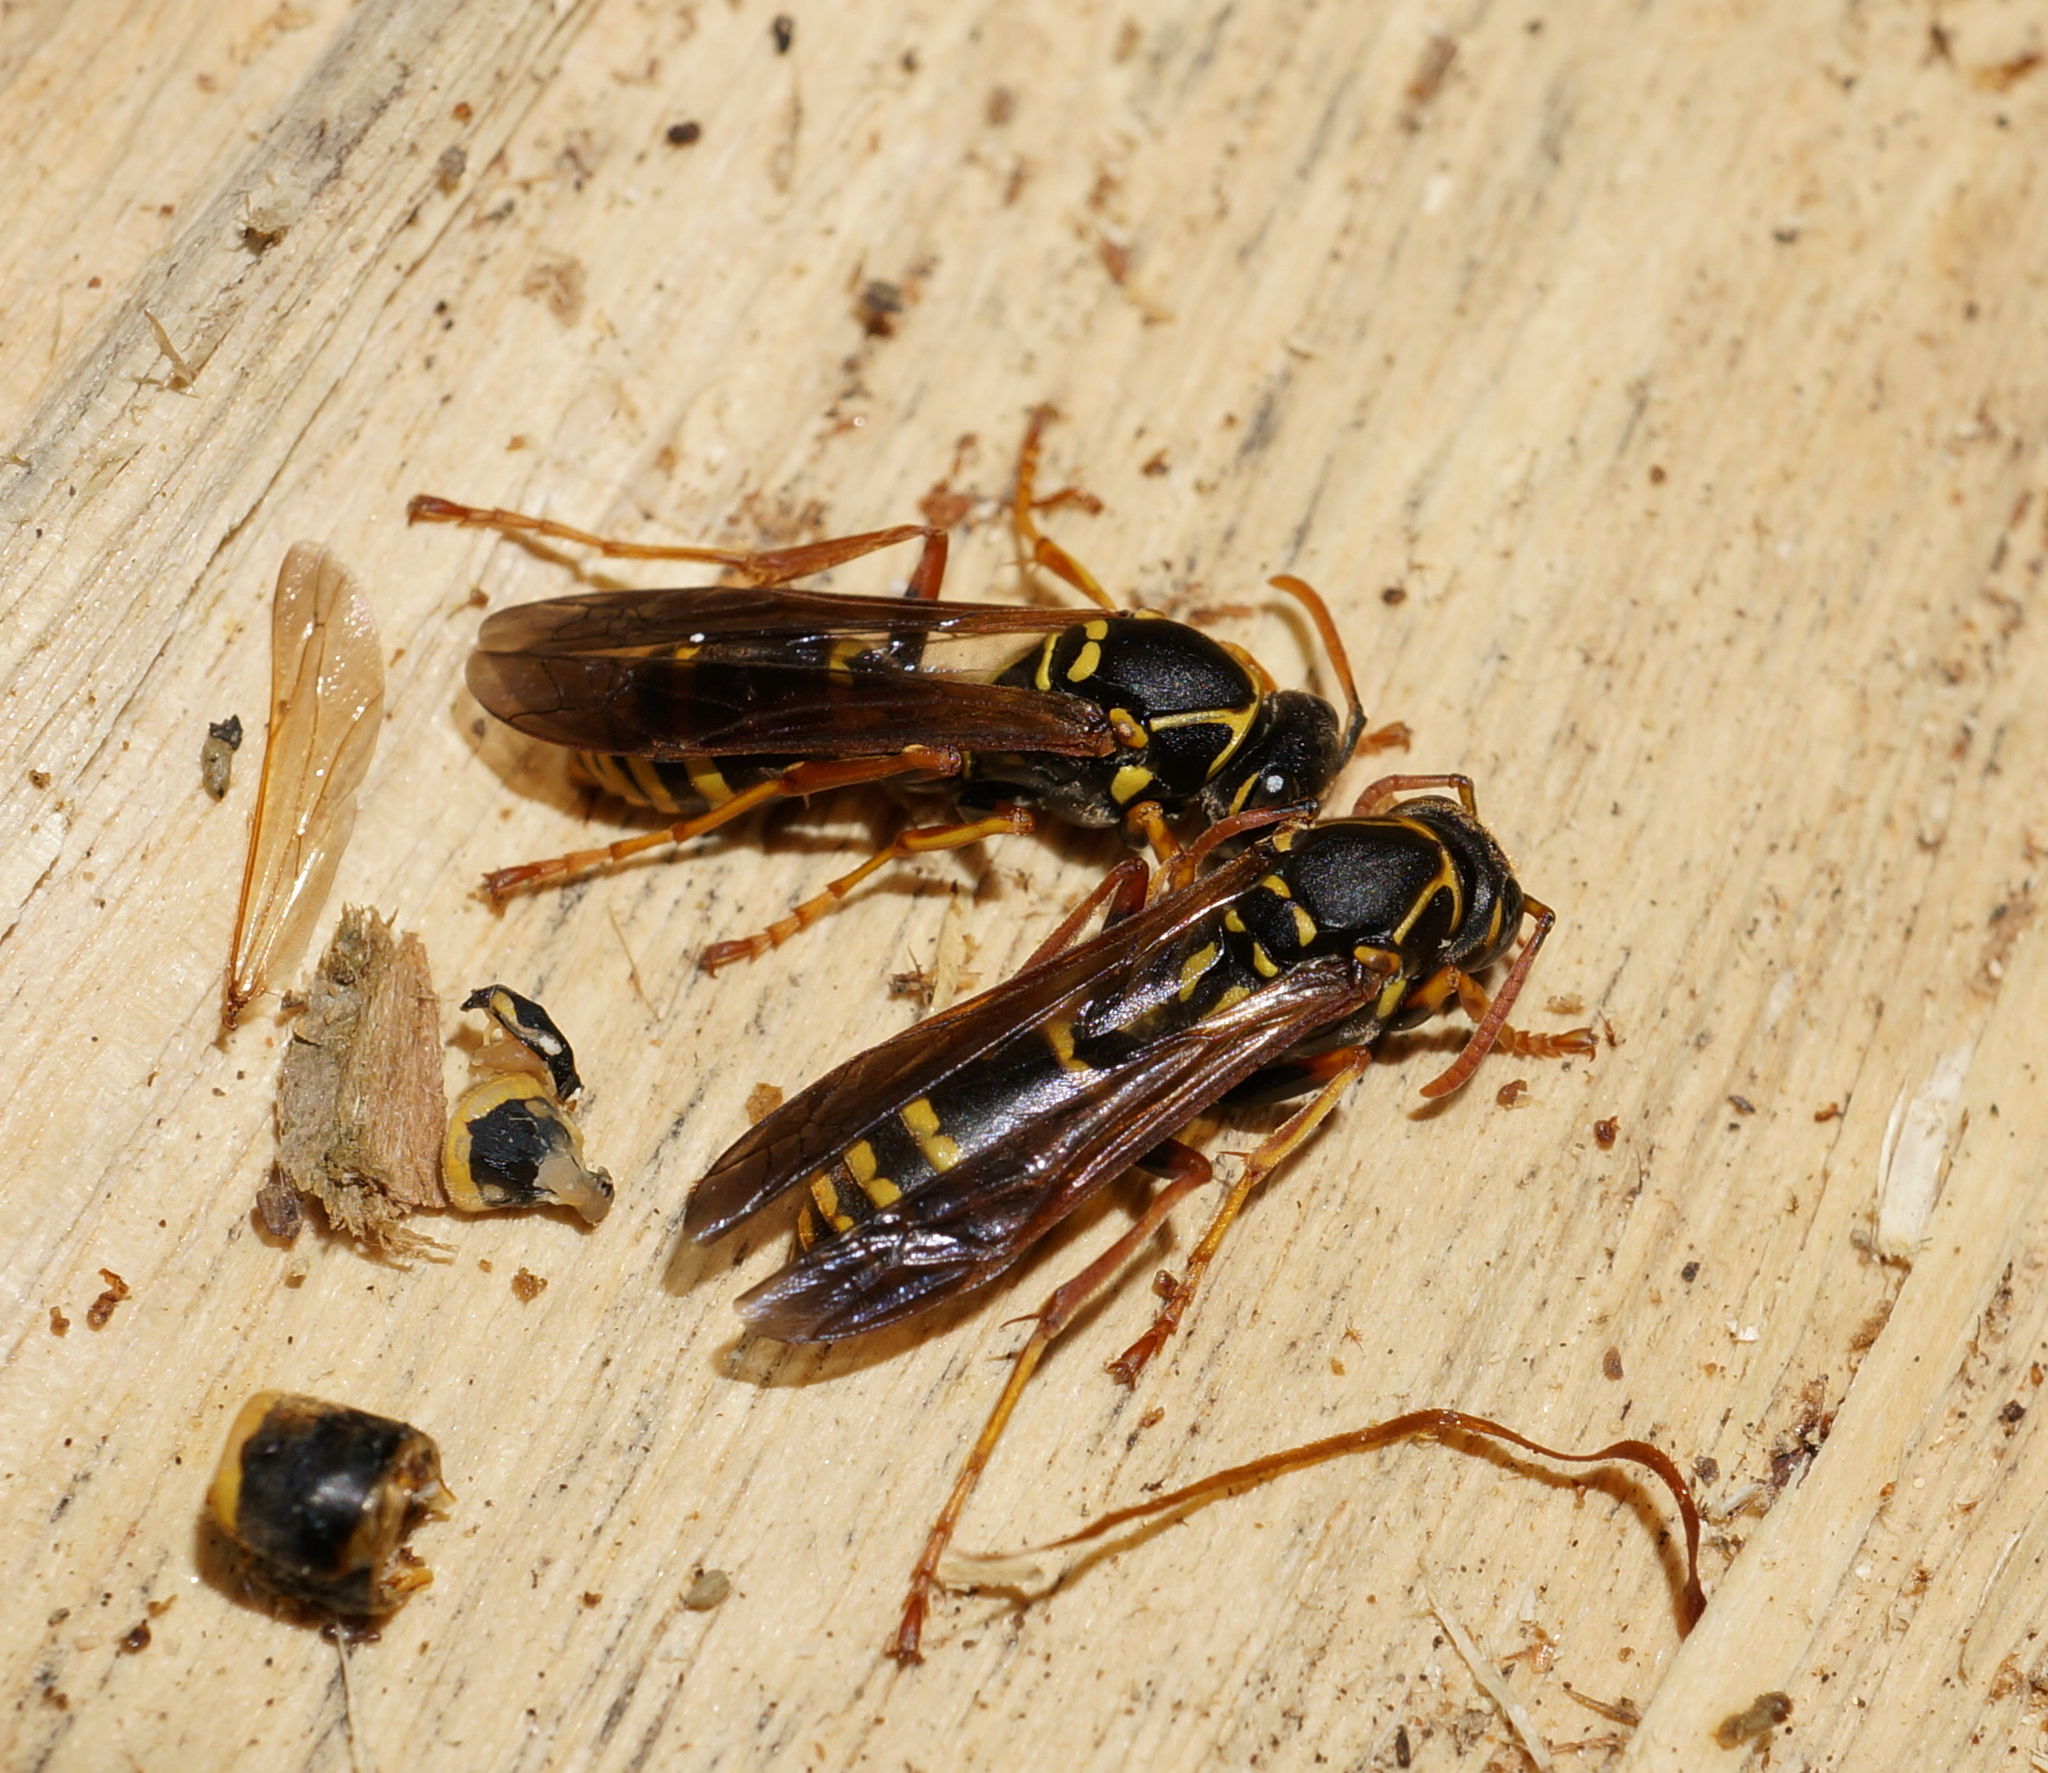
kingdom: Animalia
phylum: Arthropoda
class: Insecta
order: Hymenoptera
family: Eumenidae
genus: Polistes
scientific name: Polistes chinensis
